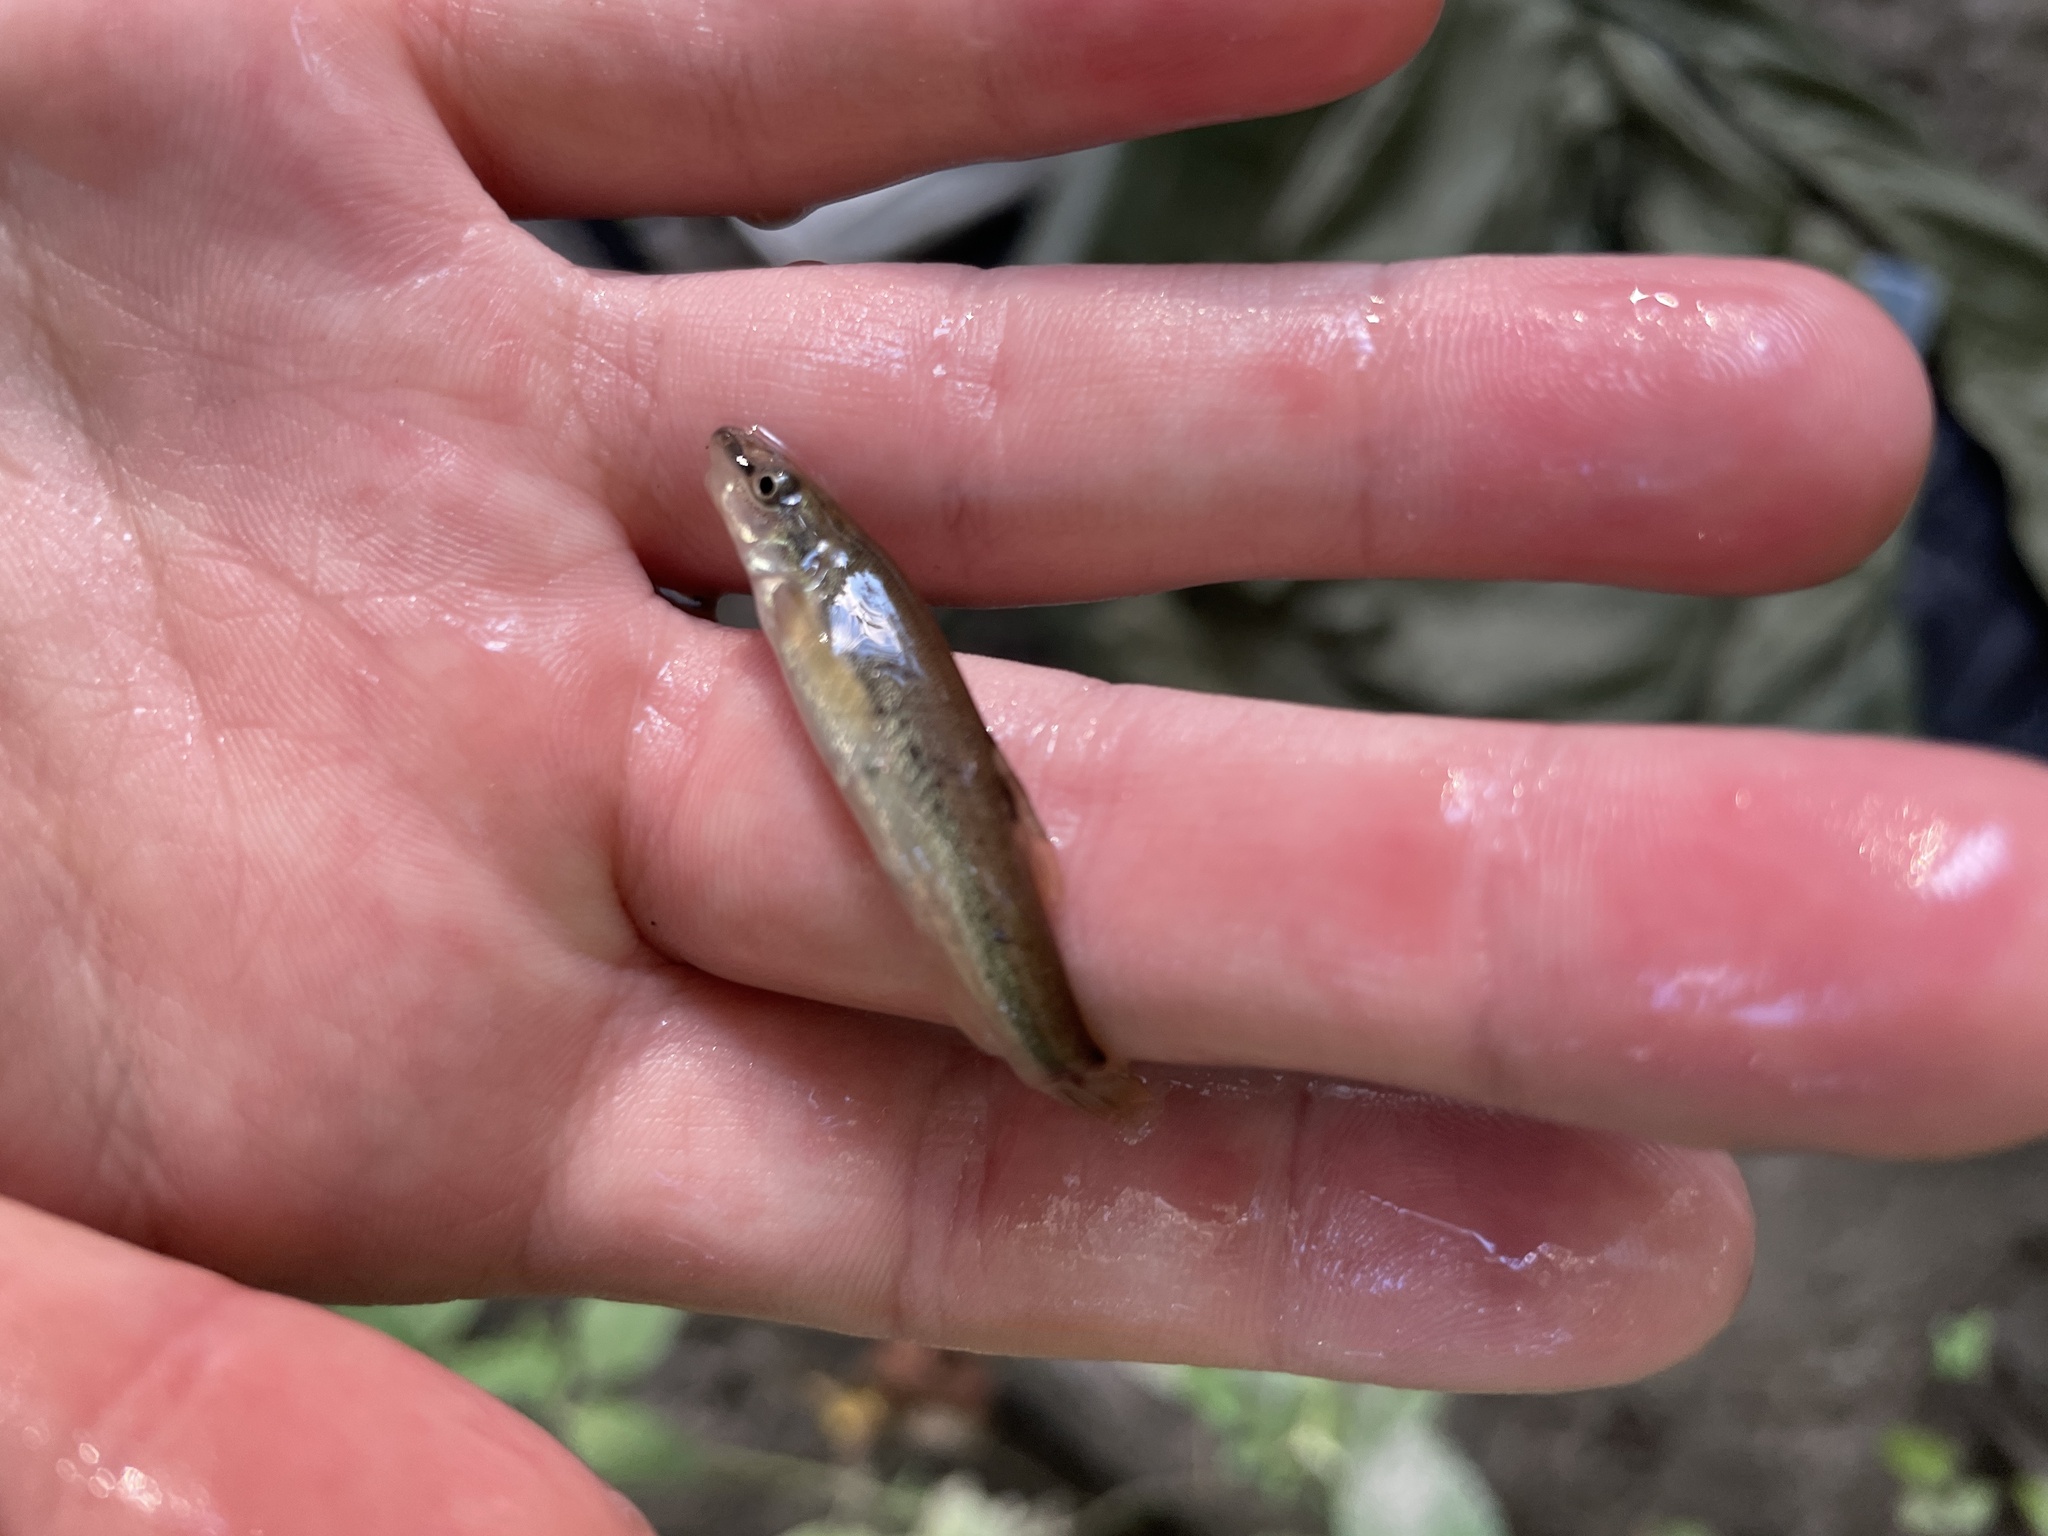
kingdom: Animalia
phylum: Chordata
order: Cypriniformes
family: Cyprinidae
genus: Rhinichthys
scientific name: Rhinichthys cataractae
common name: Longnose dace
